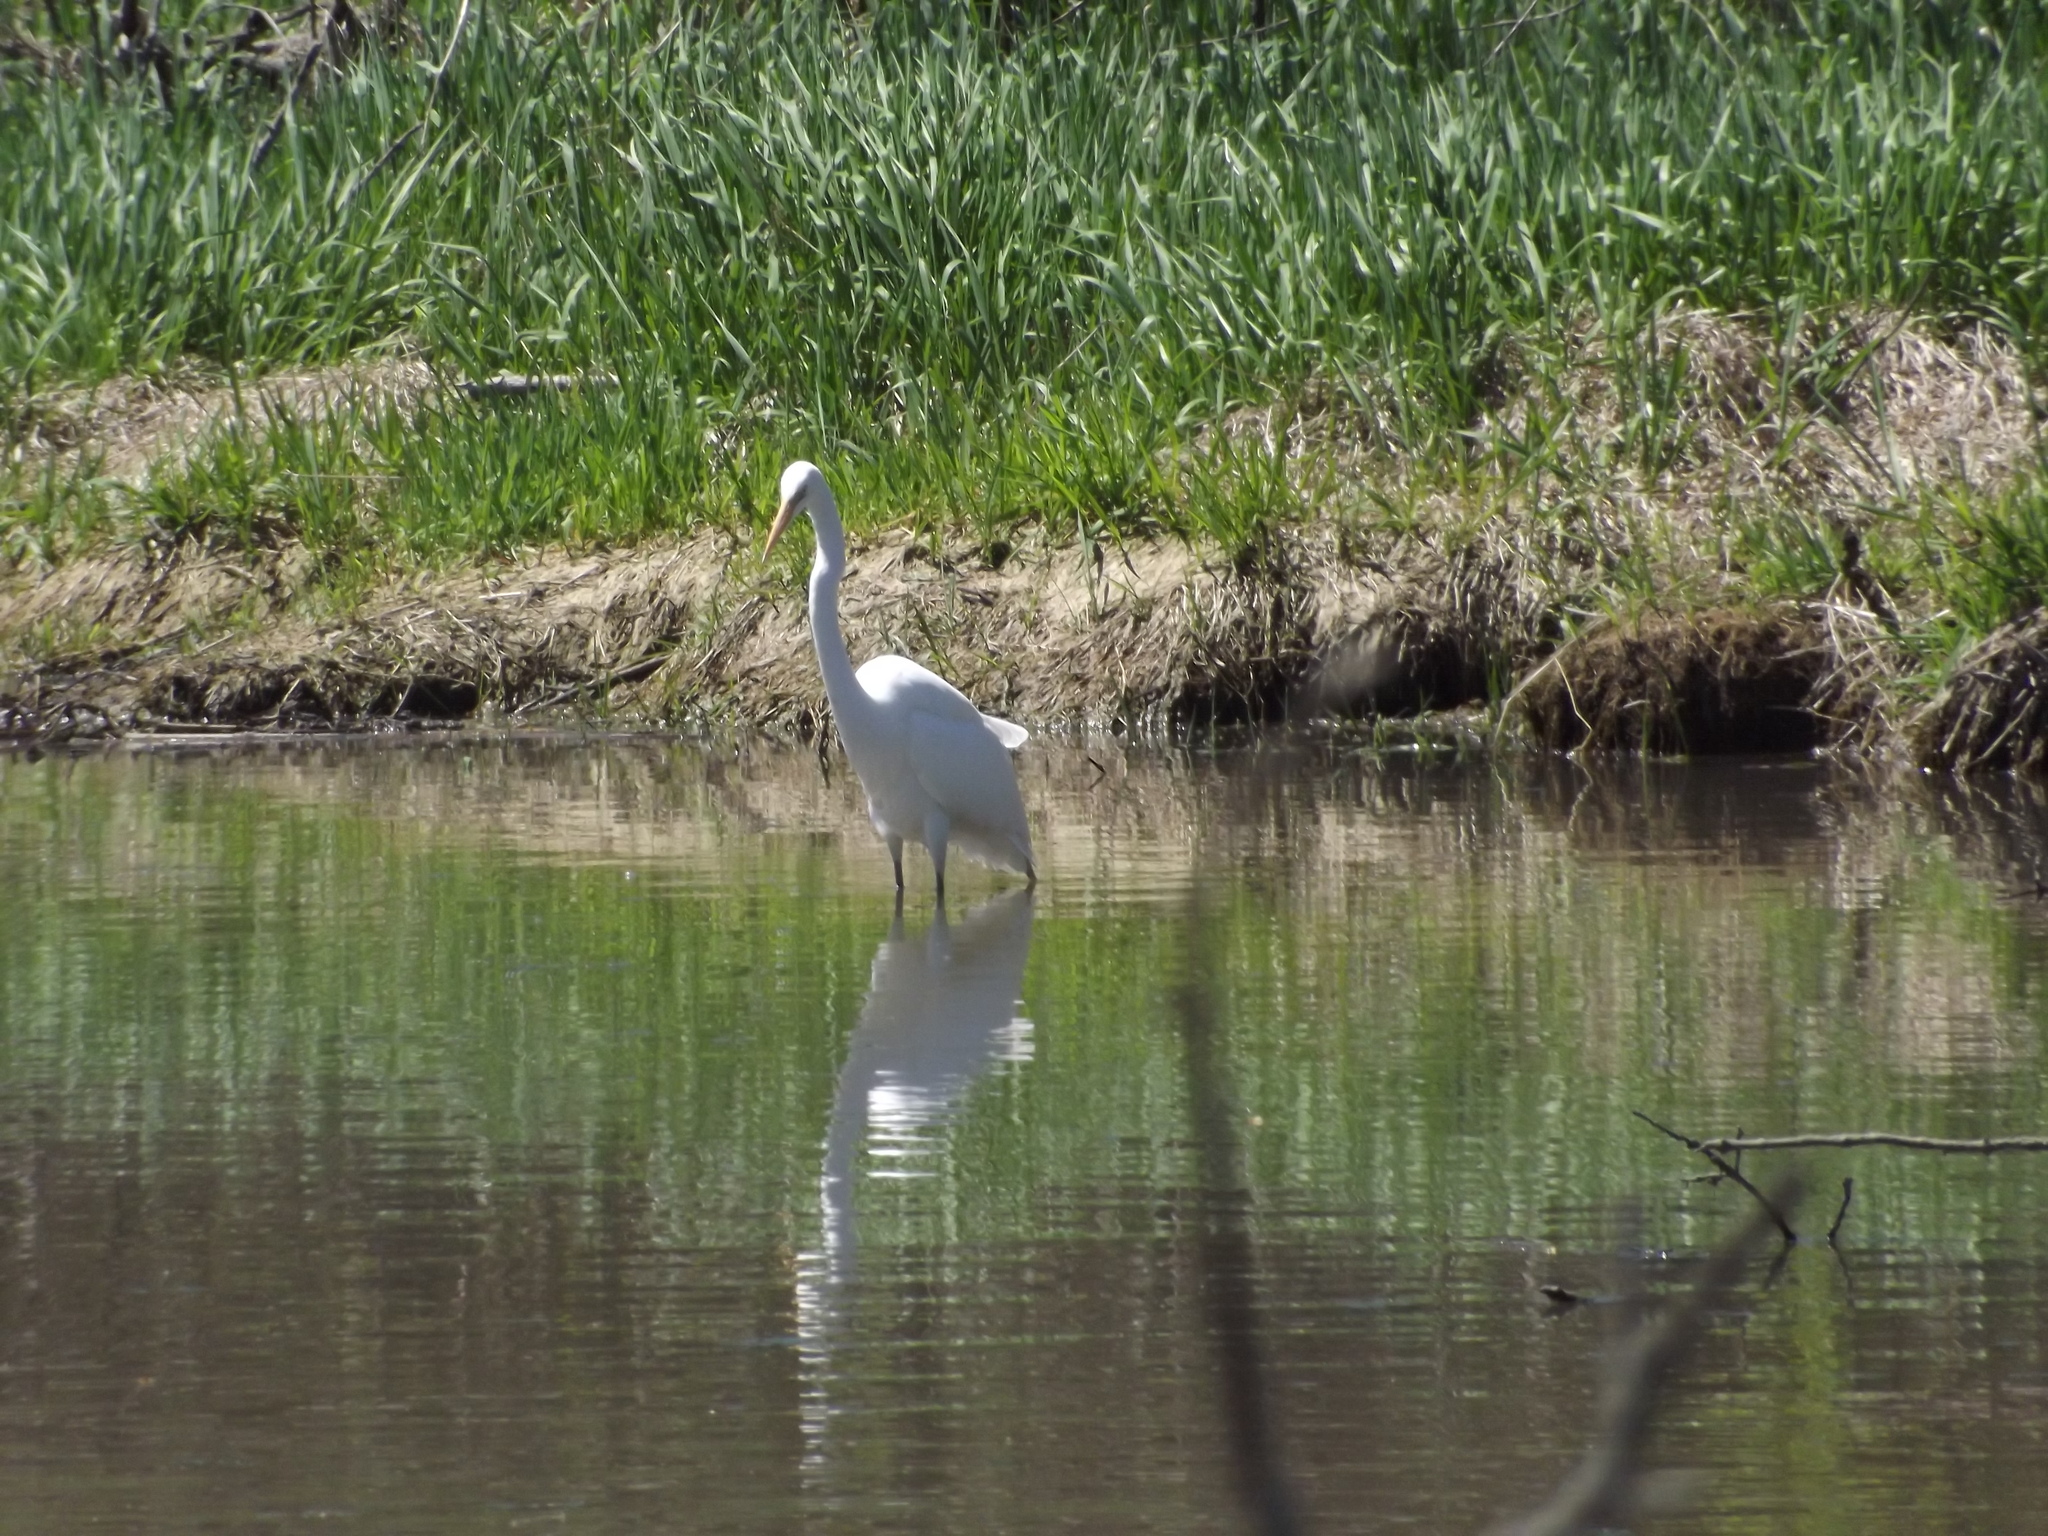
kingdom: Animalia
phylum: Chordata
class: Aves
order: Pelecaniformes
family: Ardeidae
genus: Ardea
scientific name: Ardea alba
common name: Great egret
